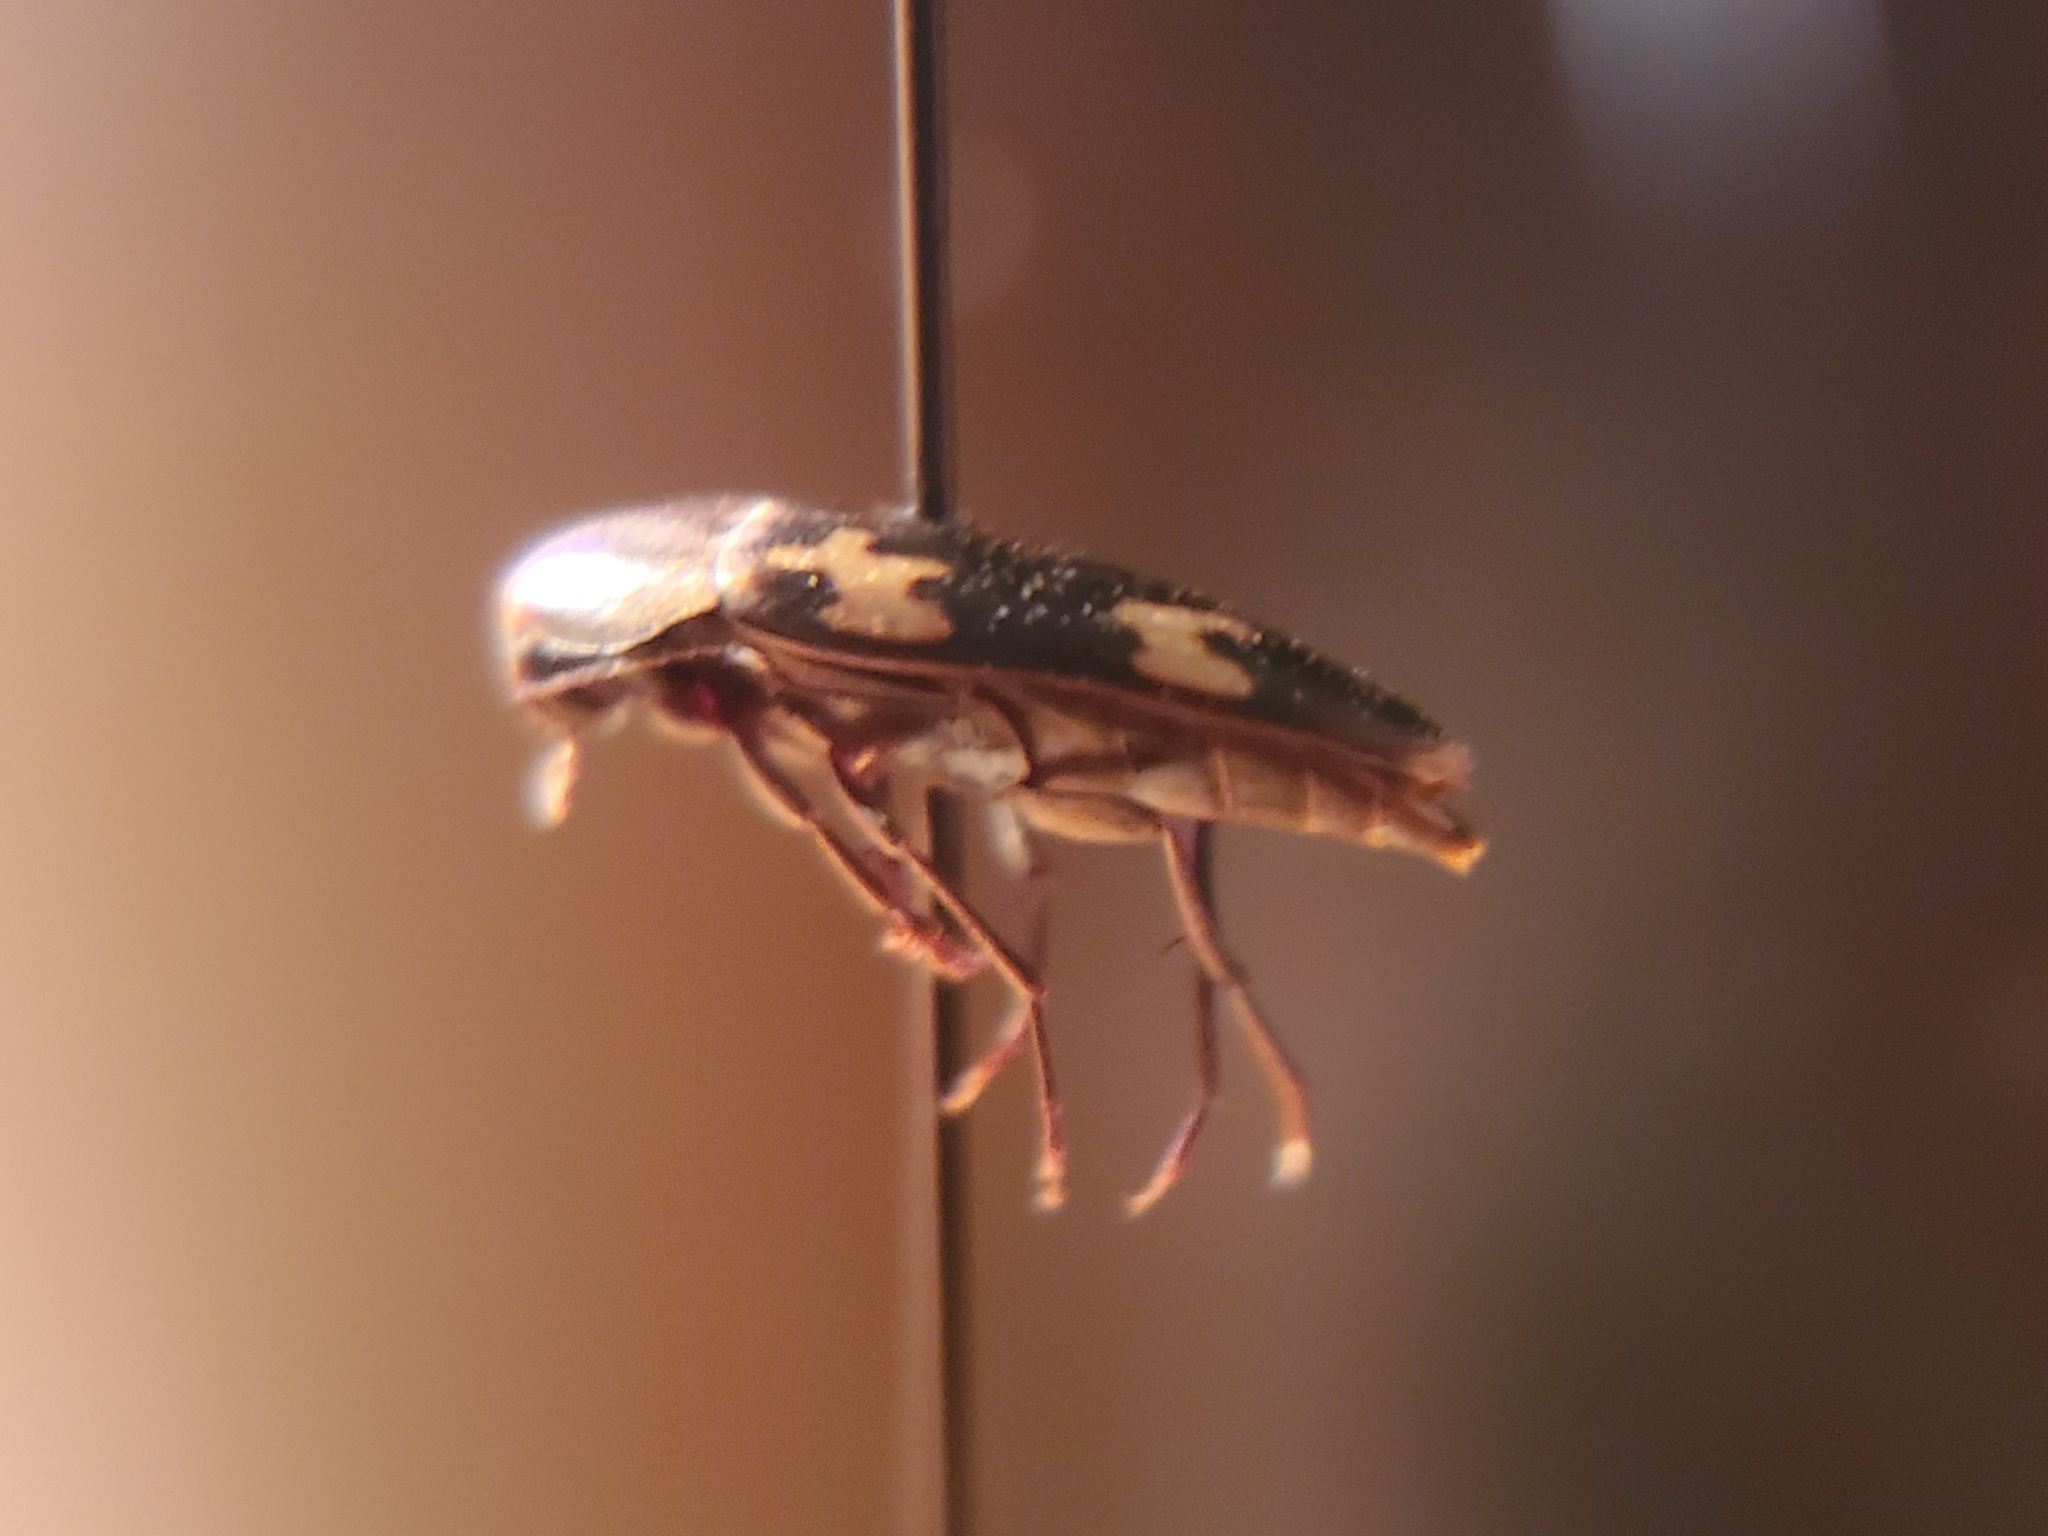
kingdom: Animalia
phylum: Arthropoda
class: Insecta
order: Coleoptera
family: Melandryidae
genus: Dircaea
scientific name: Dircaea liturata
